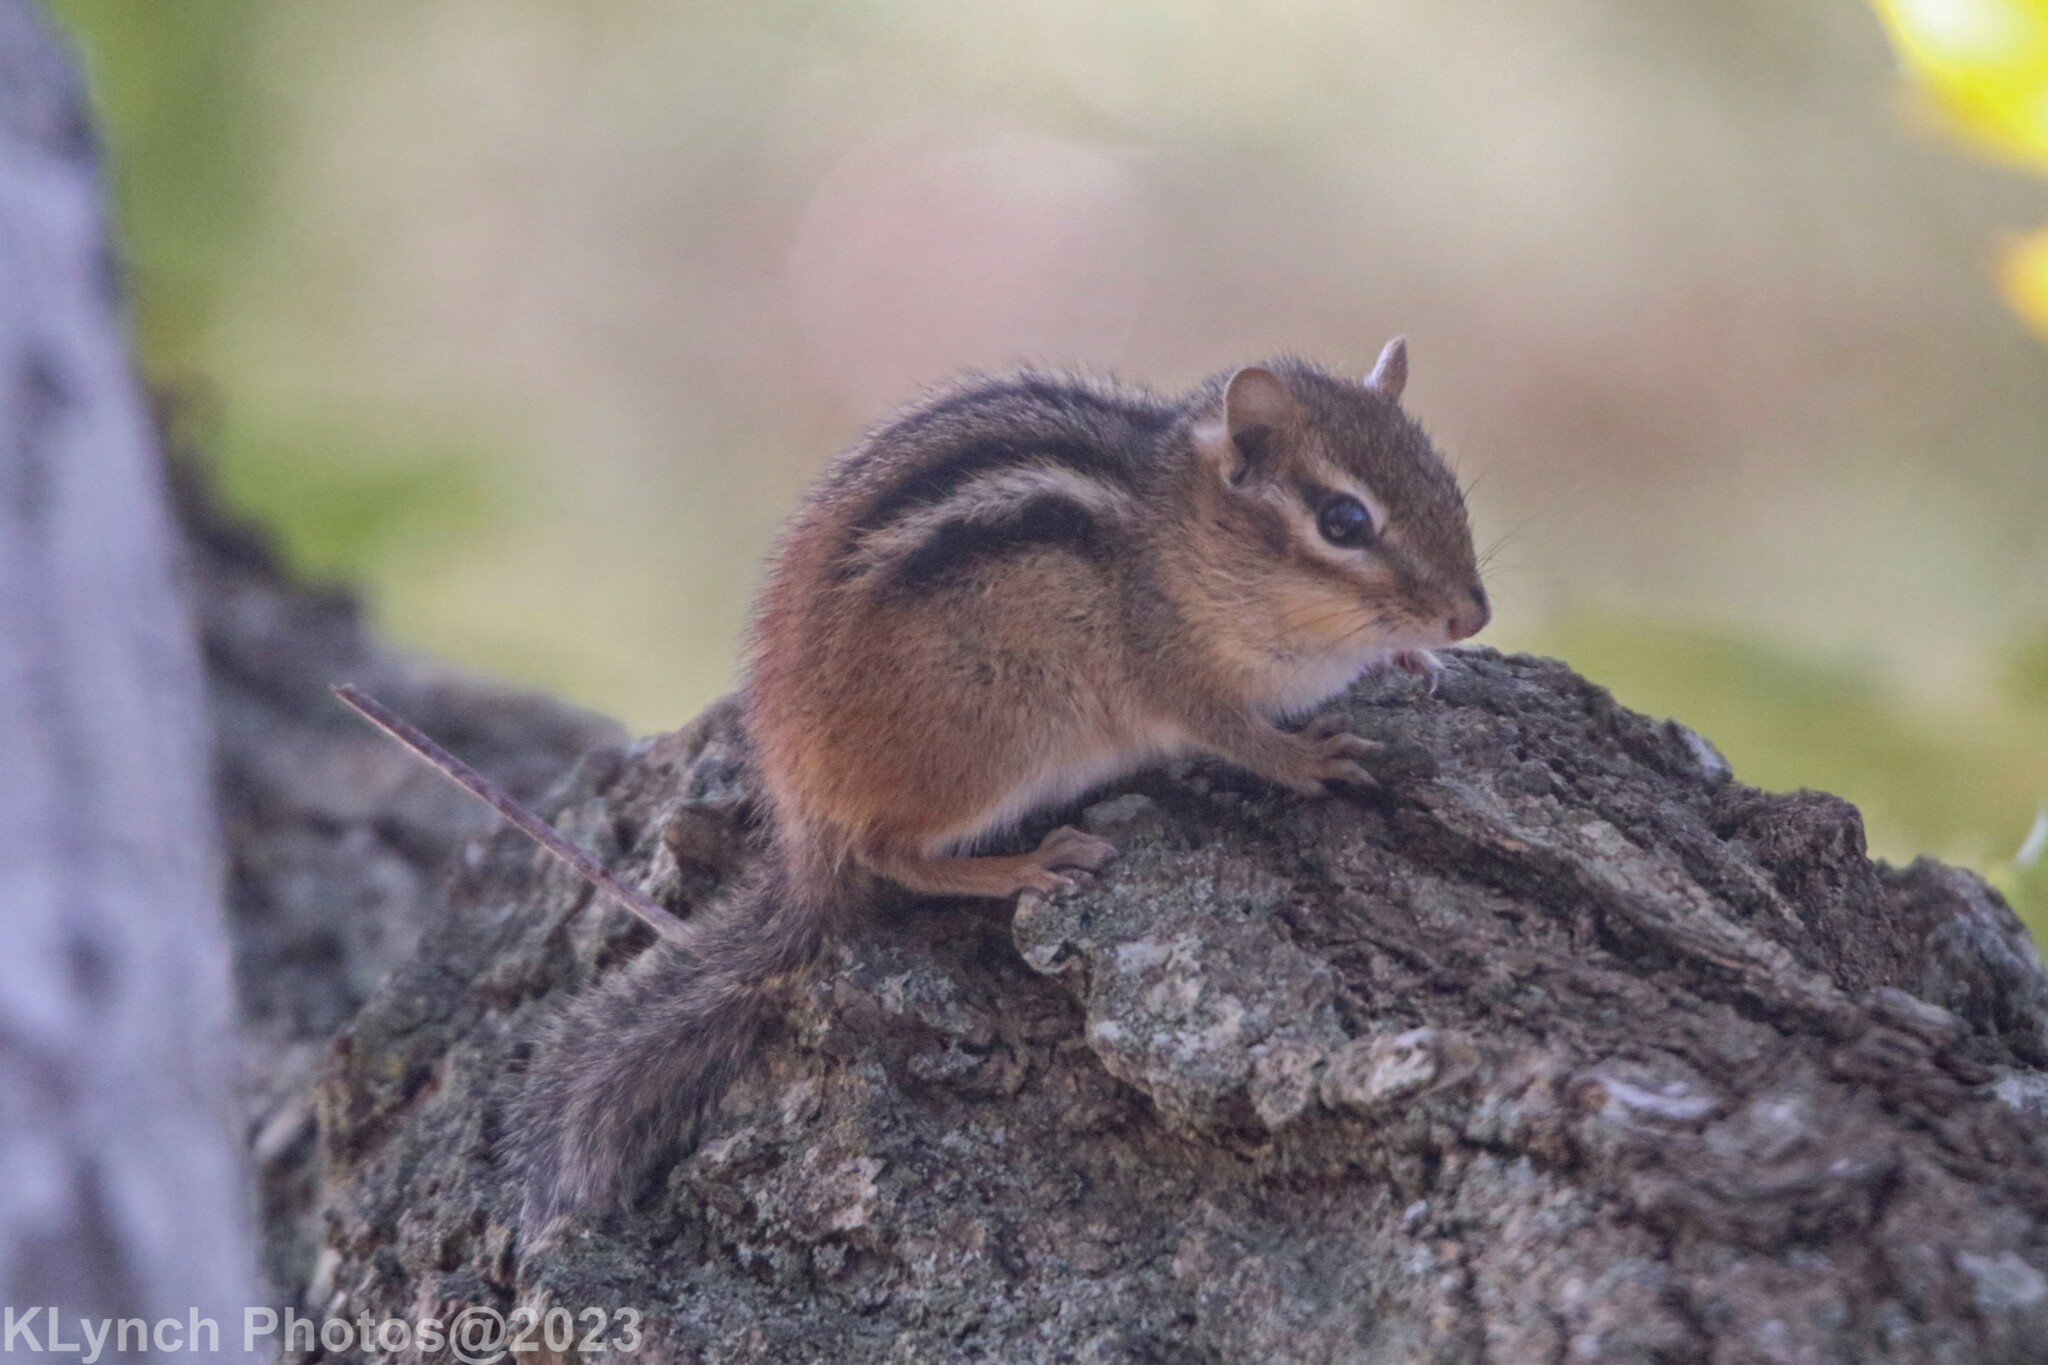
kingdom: Animalia
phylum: Chordata
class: Mammalia
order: Rodentia
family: Sciuridae
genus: Tamias
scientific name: Tamias striatus
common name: Eastern chipmunk
